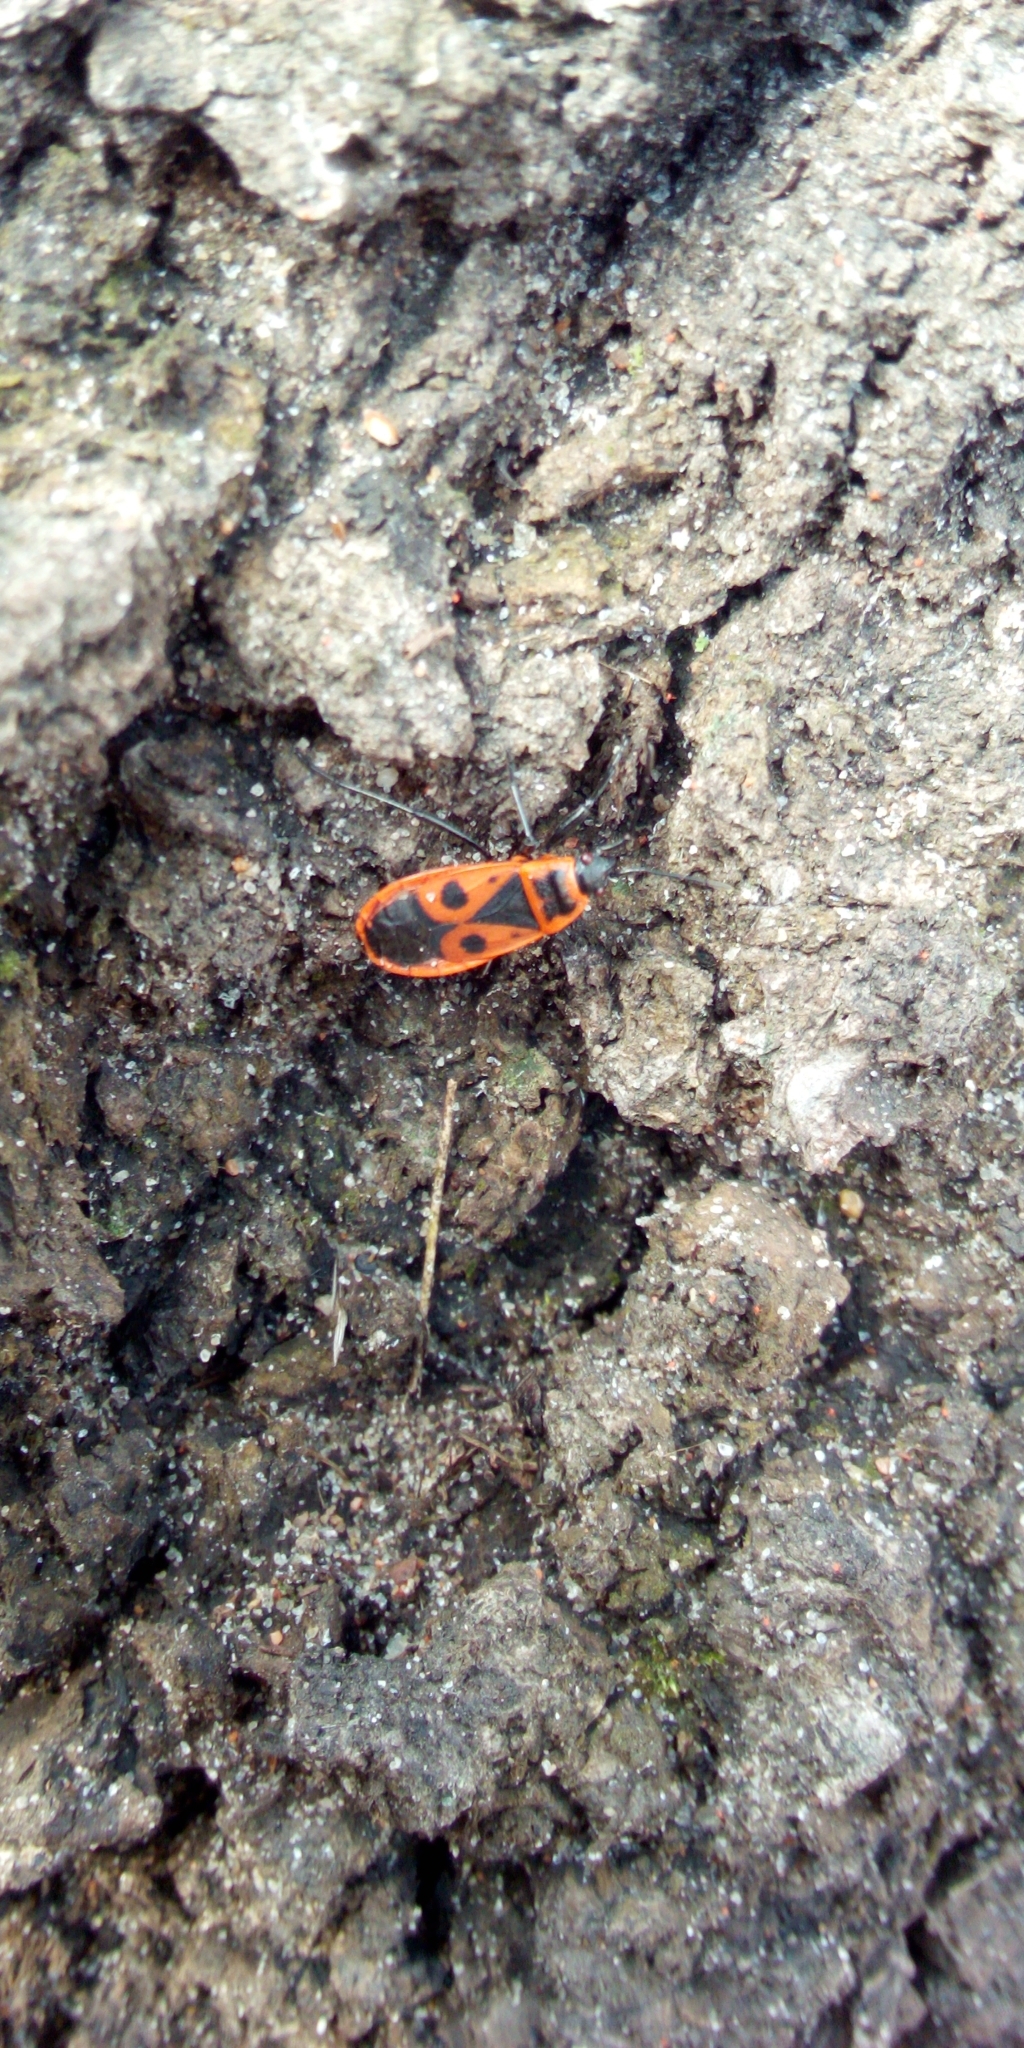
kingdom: Animalia
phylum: Arthropoda
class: Insecta
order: Hemiptera
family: Pyrrhocoridae
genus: Pyrrhocoris
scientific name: Pyrrhocoris apterus
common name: Firebug
